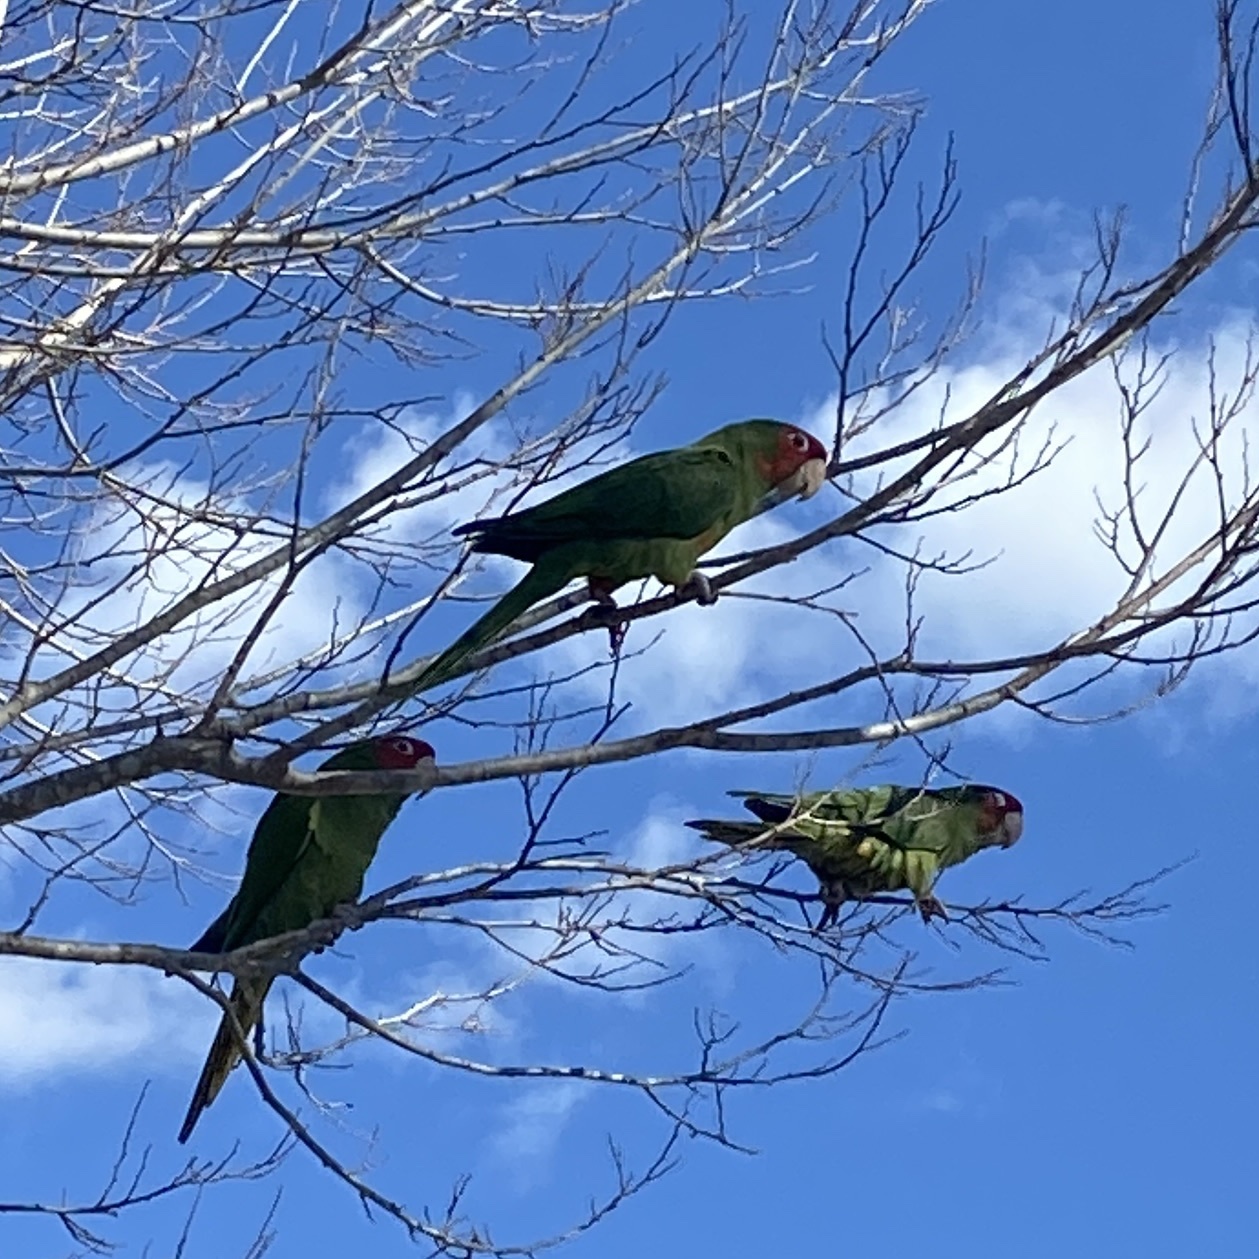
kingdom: Animalia
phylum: Chordata
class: Aves
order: Psittaciformes
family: Psittacidae
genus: Aratinga
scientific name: Aratinga mitrata
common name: Mitred parakeet
